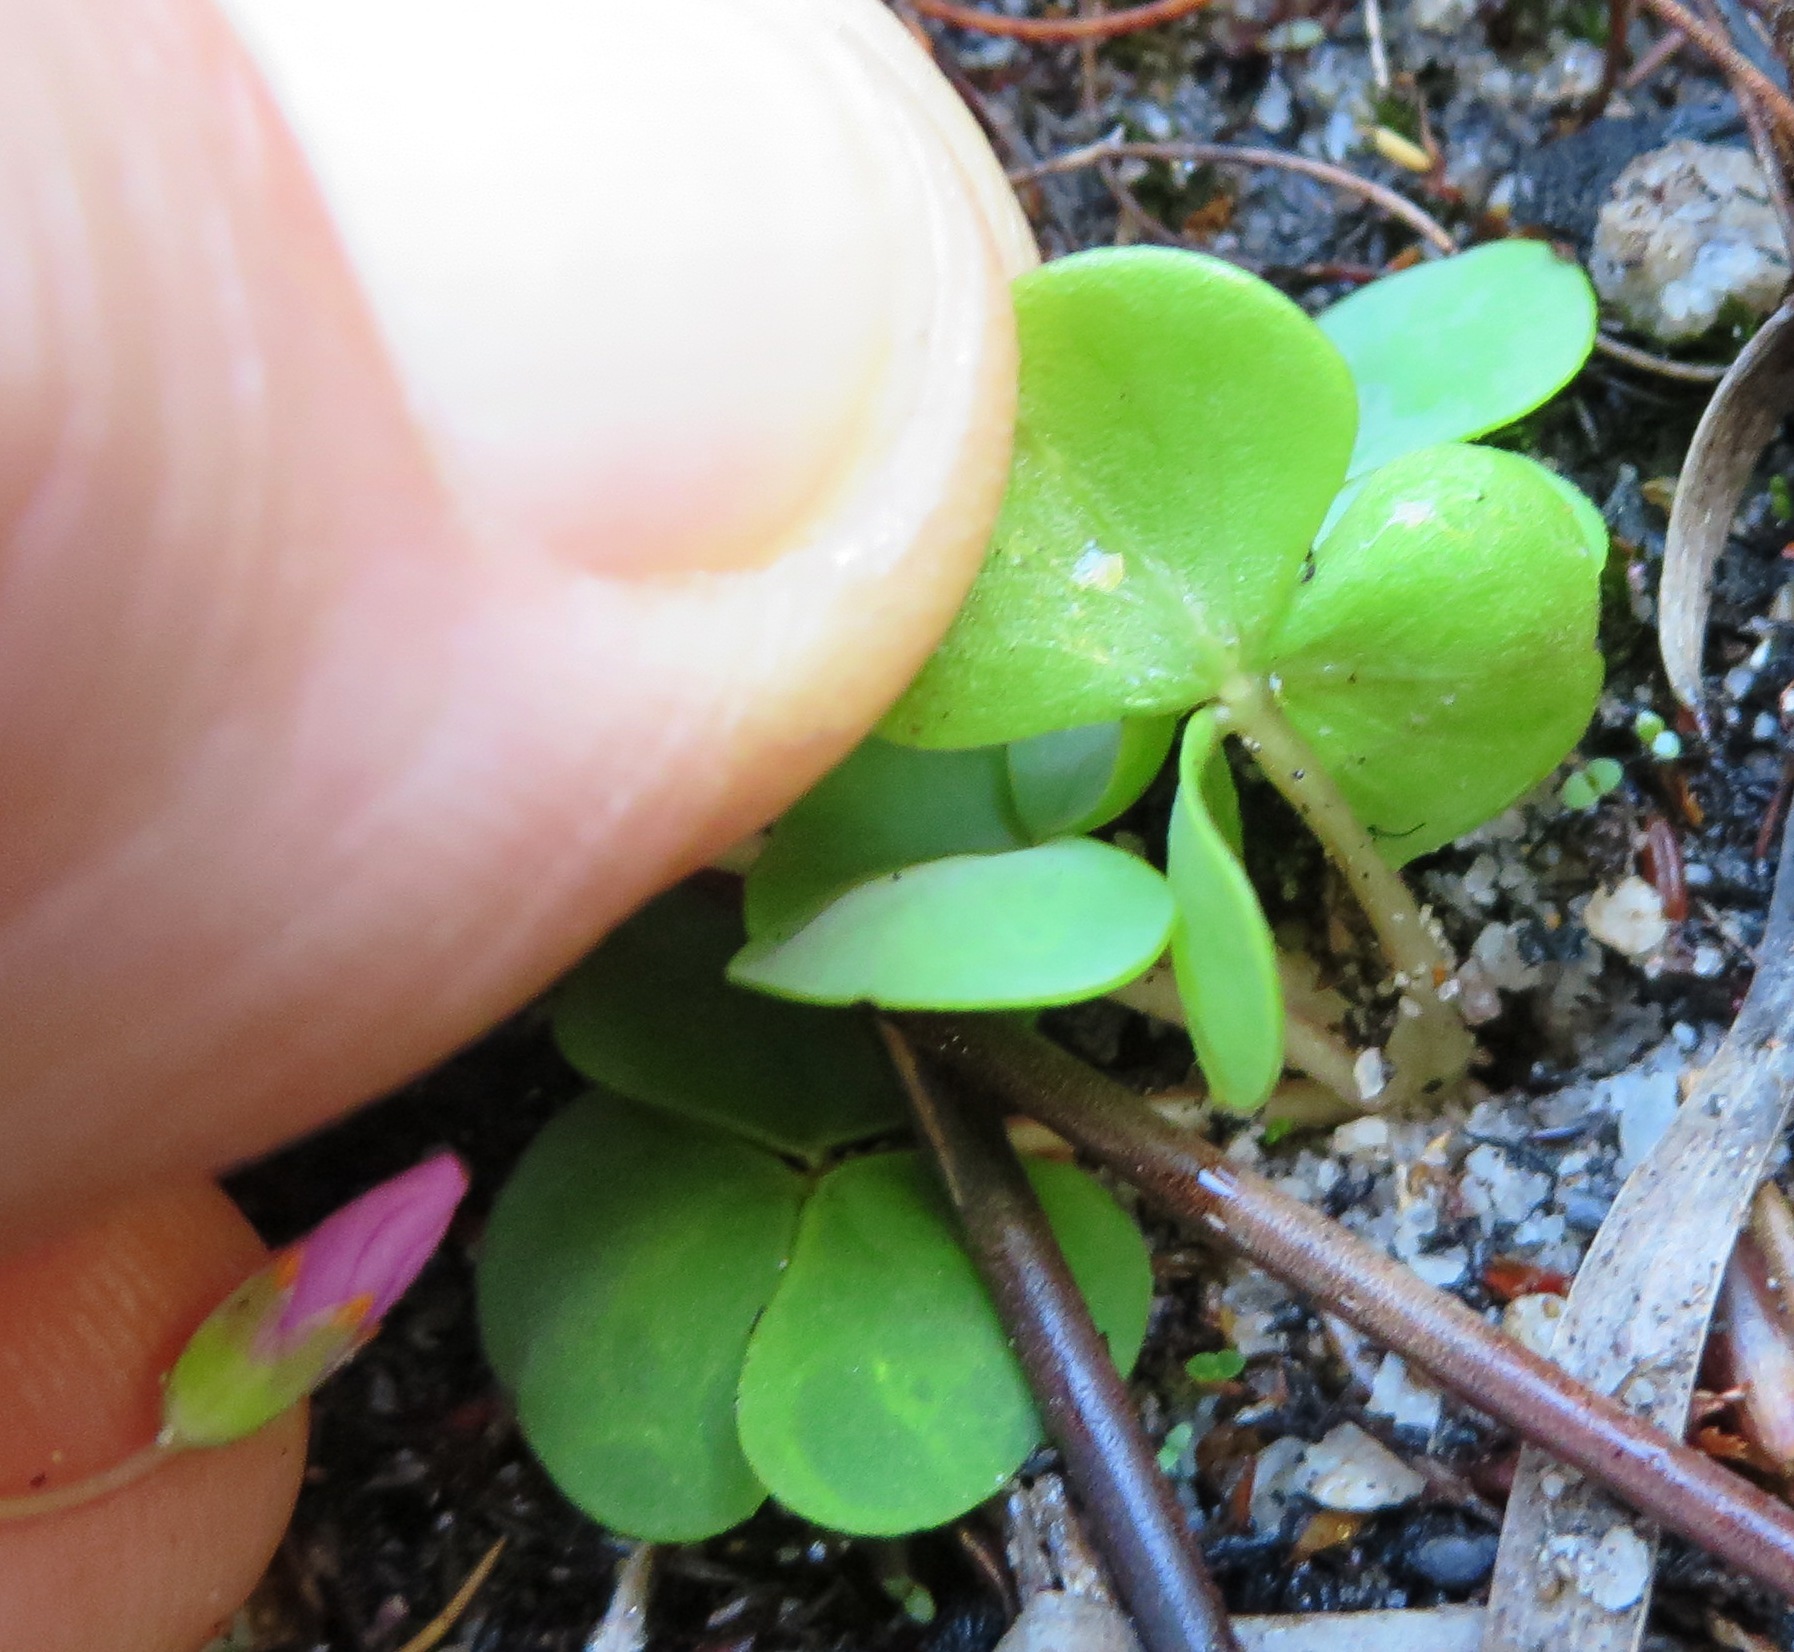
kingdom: Plantae
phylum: Tracheophyta
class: Magnoliopsida
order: Oxalidales
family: Oxalidaceae
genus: Oxalis
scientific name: Oxalis commutata
